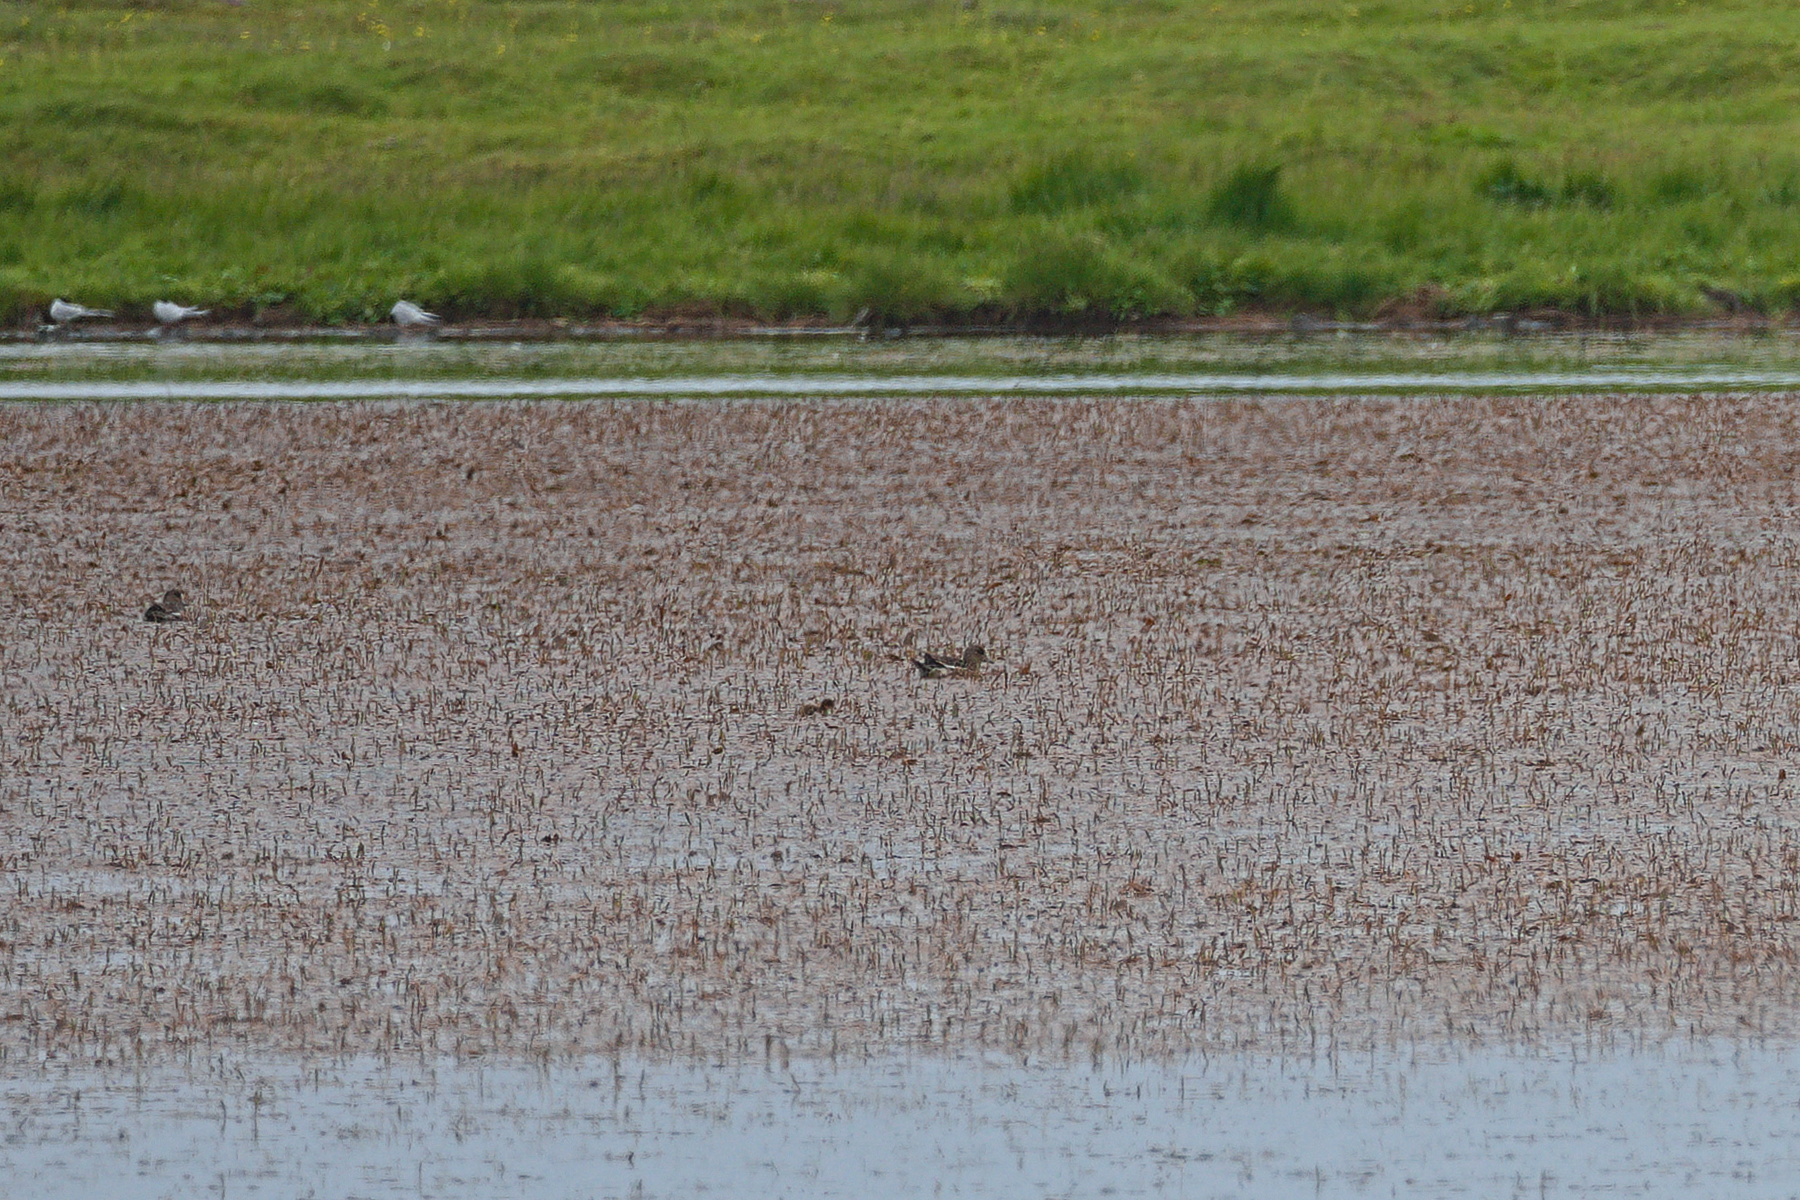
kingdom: Animalia
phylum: Chordata
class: Aves
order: Anseriformes
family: Anatidae
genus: Mareca
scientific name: Mareca penelope
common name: Eurasian wigeon
